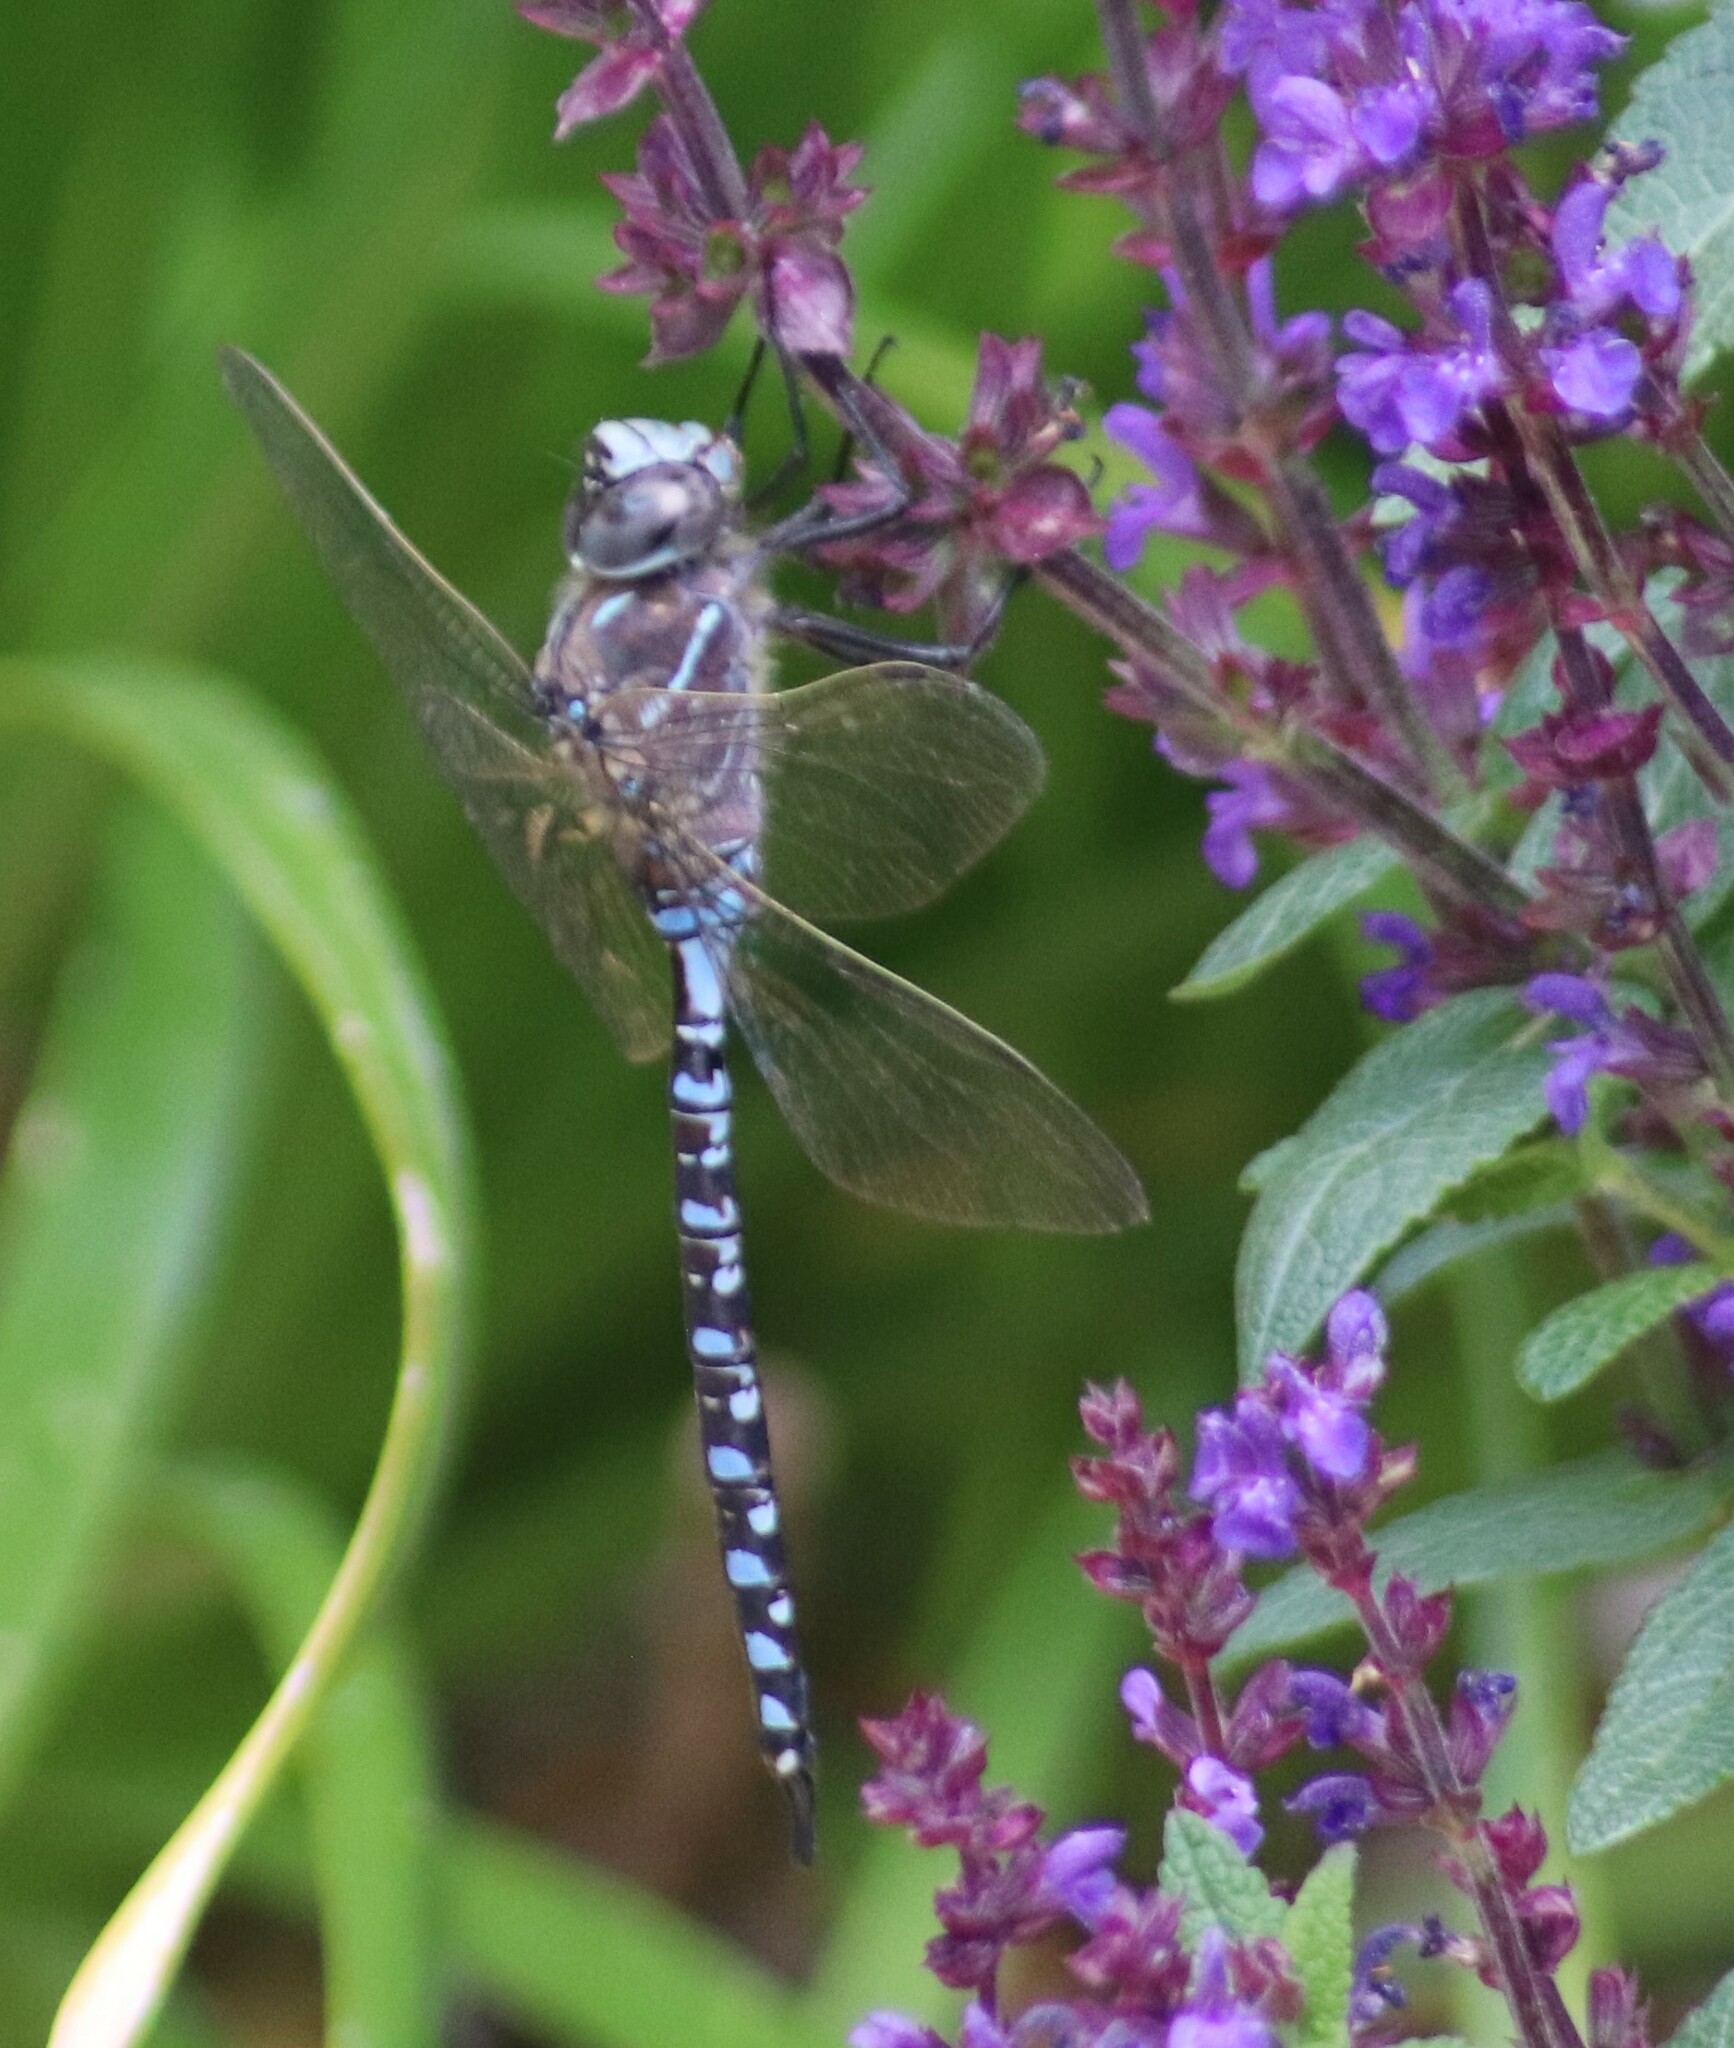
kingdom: Animalia
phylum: Arthropoda
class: Insecta
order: Odonata
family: Aeshnidae
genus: Aeshna
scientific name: Aeshna interrupta
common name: Variable darner
